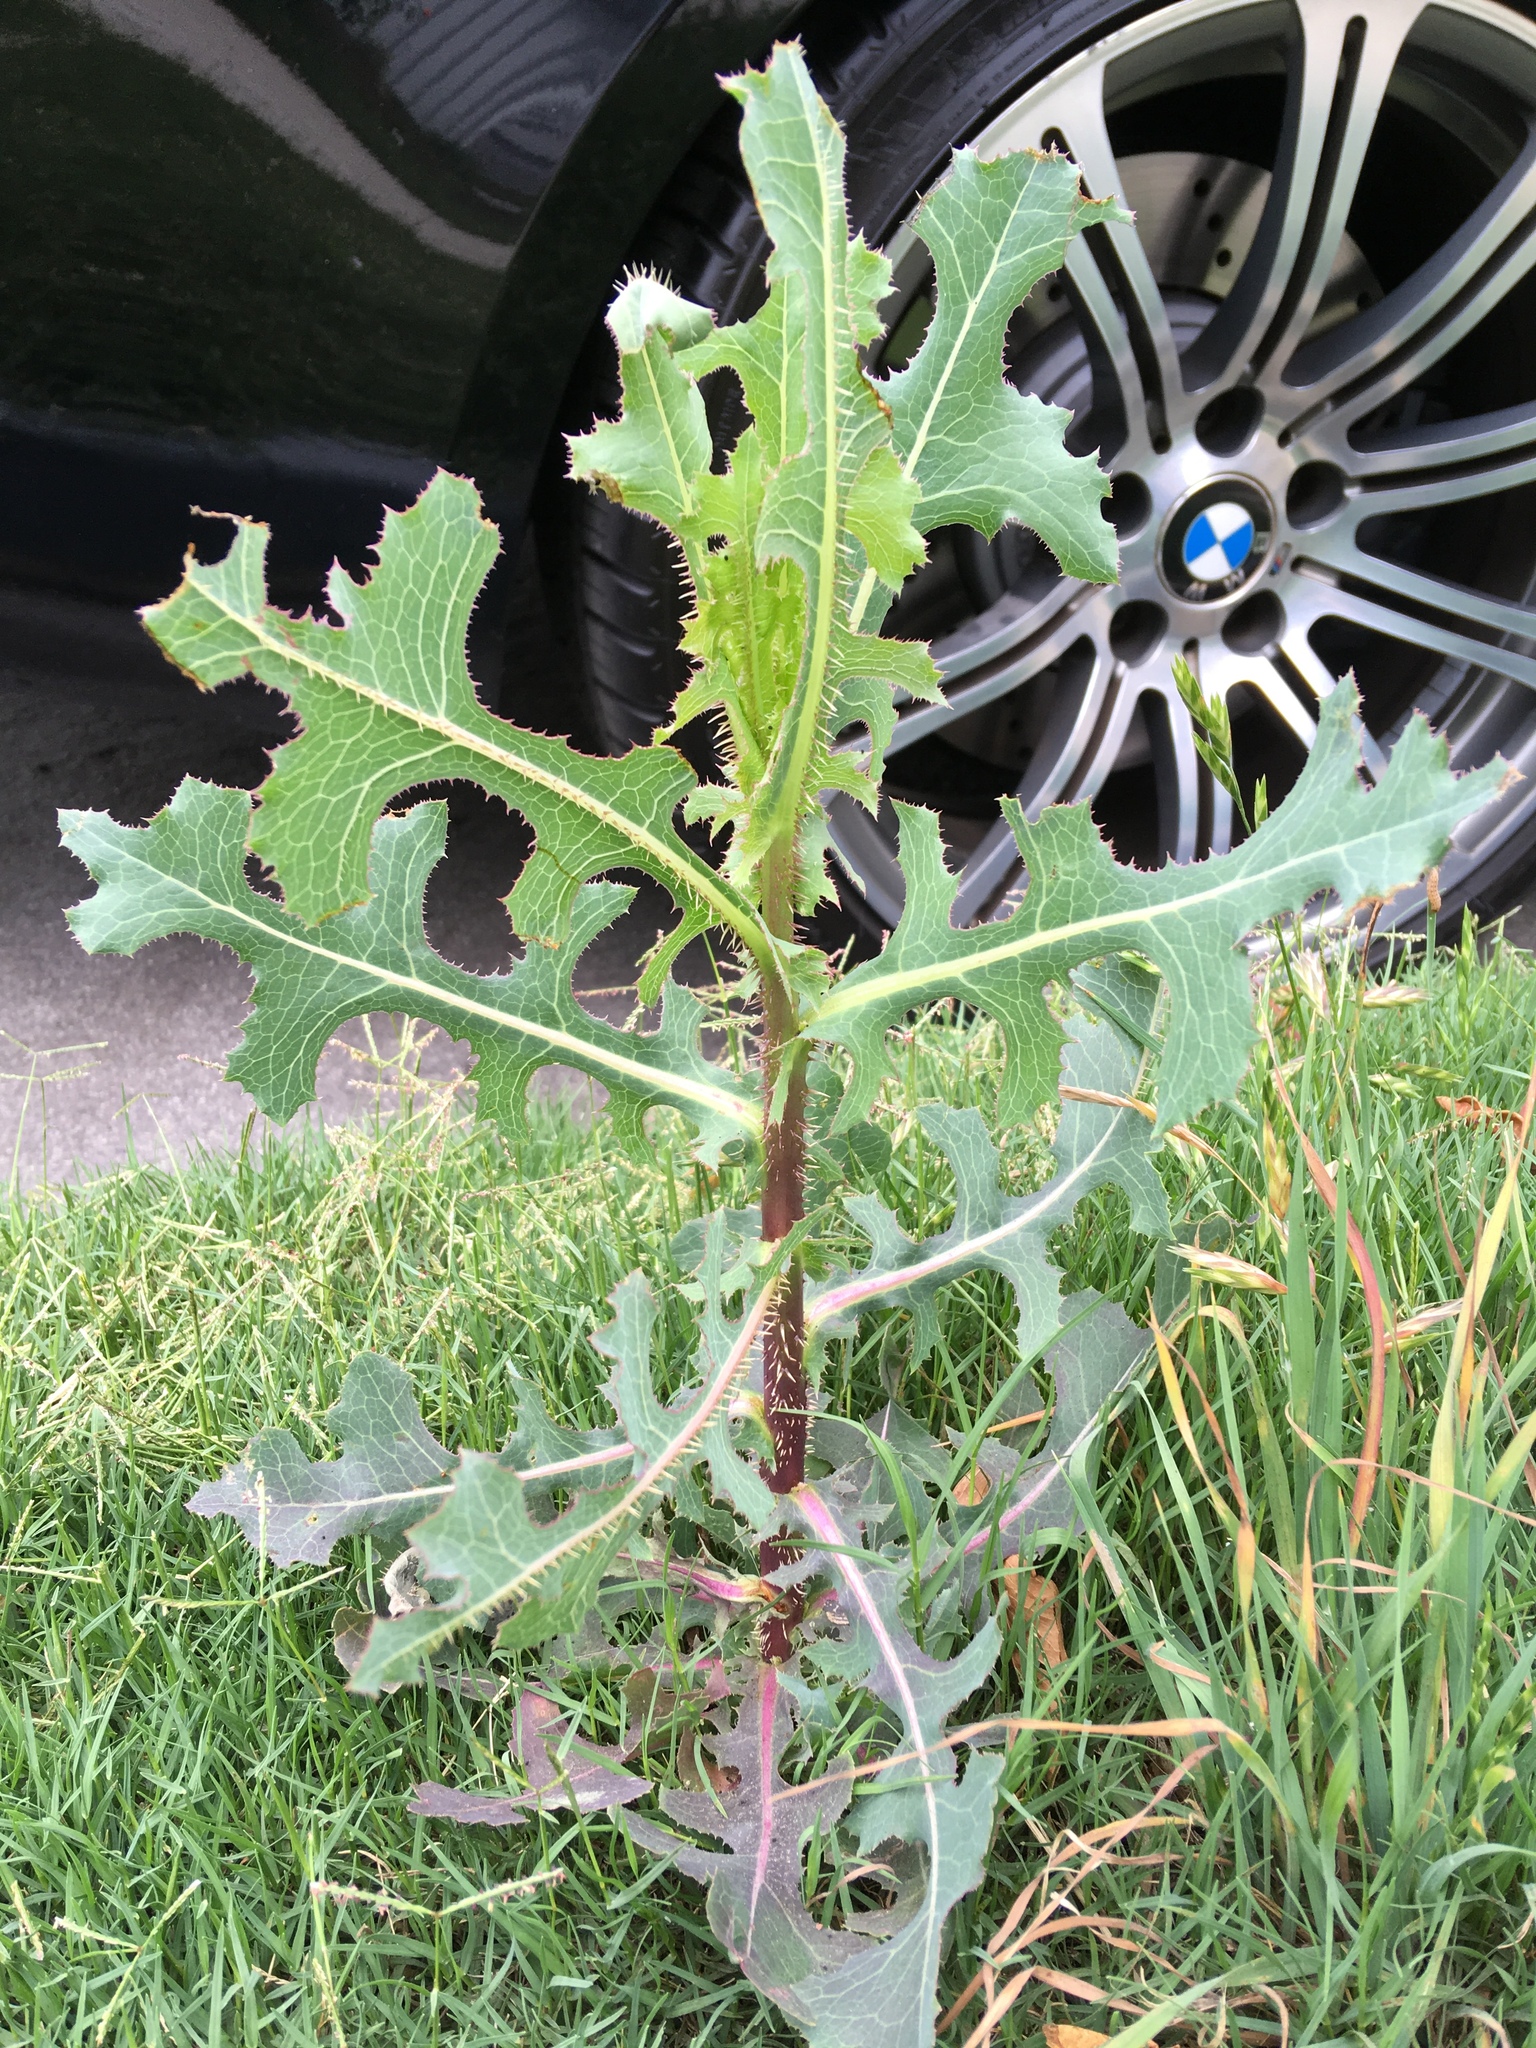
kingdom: Plantae
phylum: Tracheophyta
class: Magnoliopsida
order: Asterales
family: Asteraceae
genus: Lactuca
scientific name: Lactuca serriola
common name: Prickly lettuce
